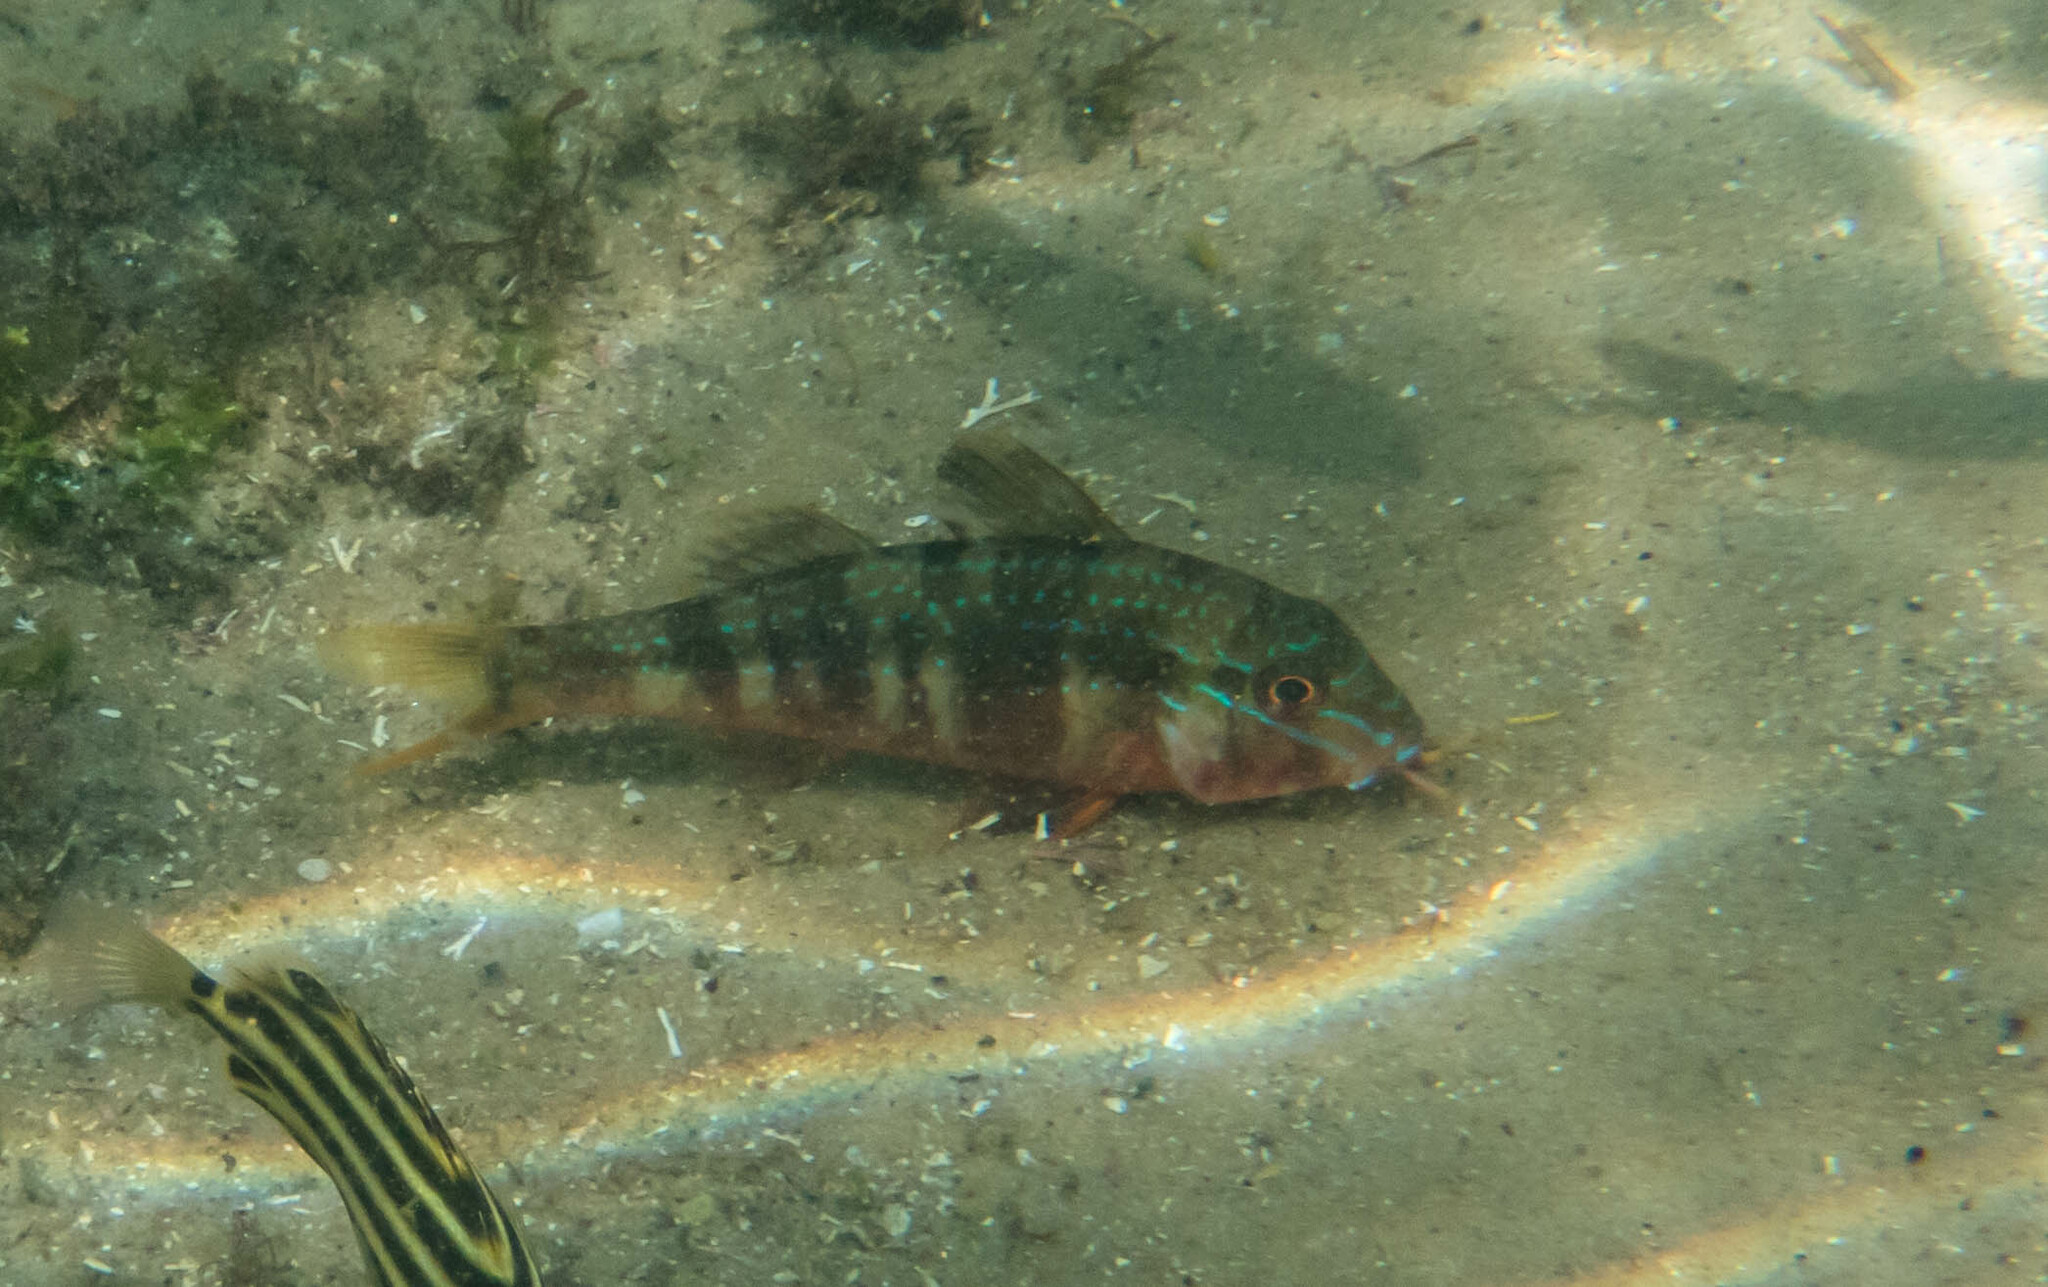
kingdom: Animalia
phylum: Chordata
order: Perciformes
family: Mullidae
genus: Upeneichthys
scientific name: Upeneichthys lineatus
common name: Red mullet
